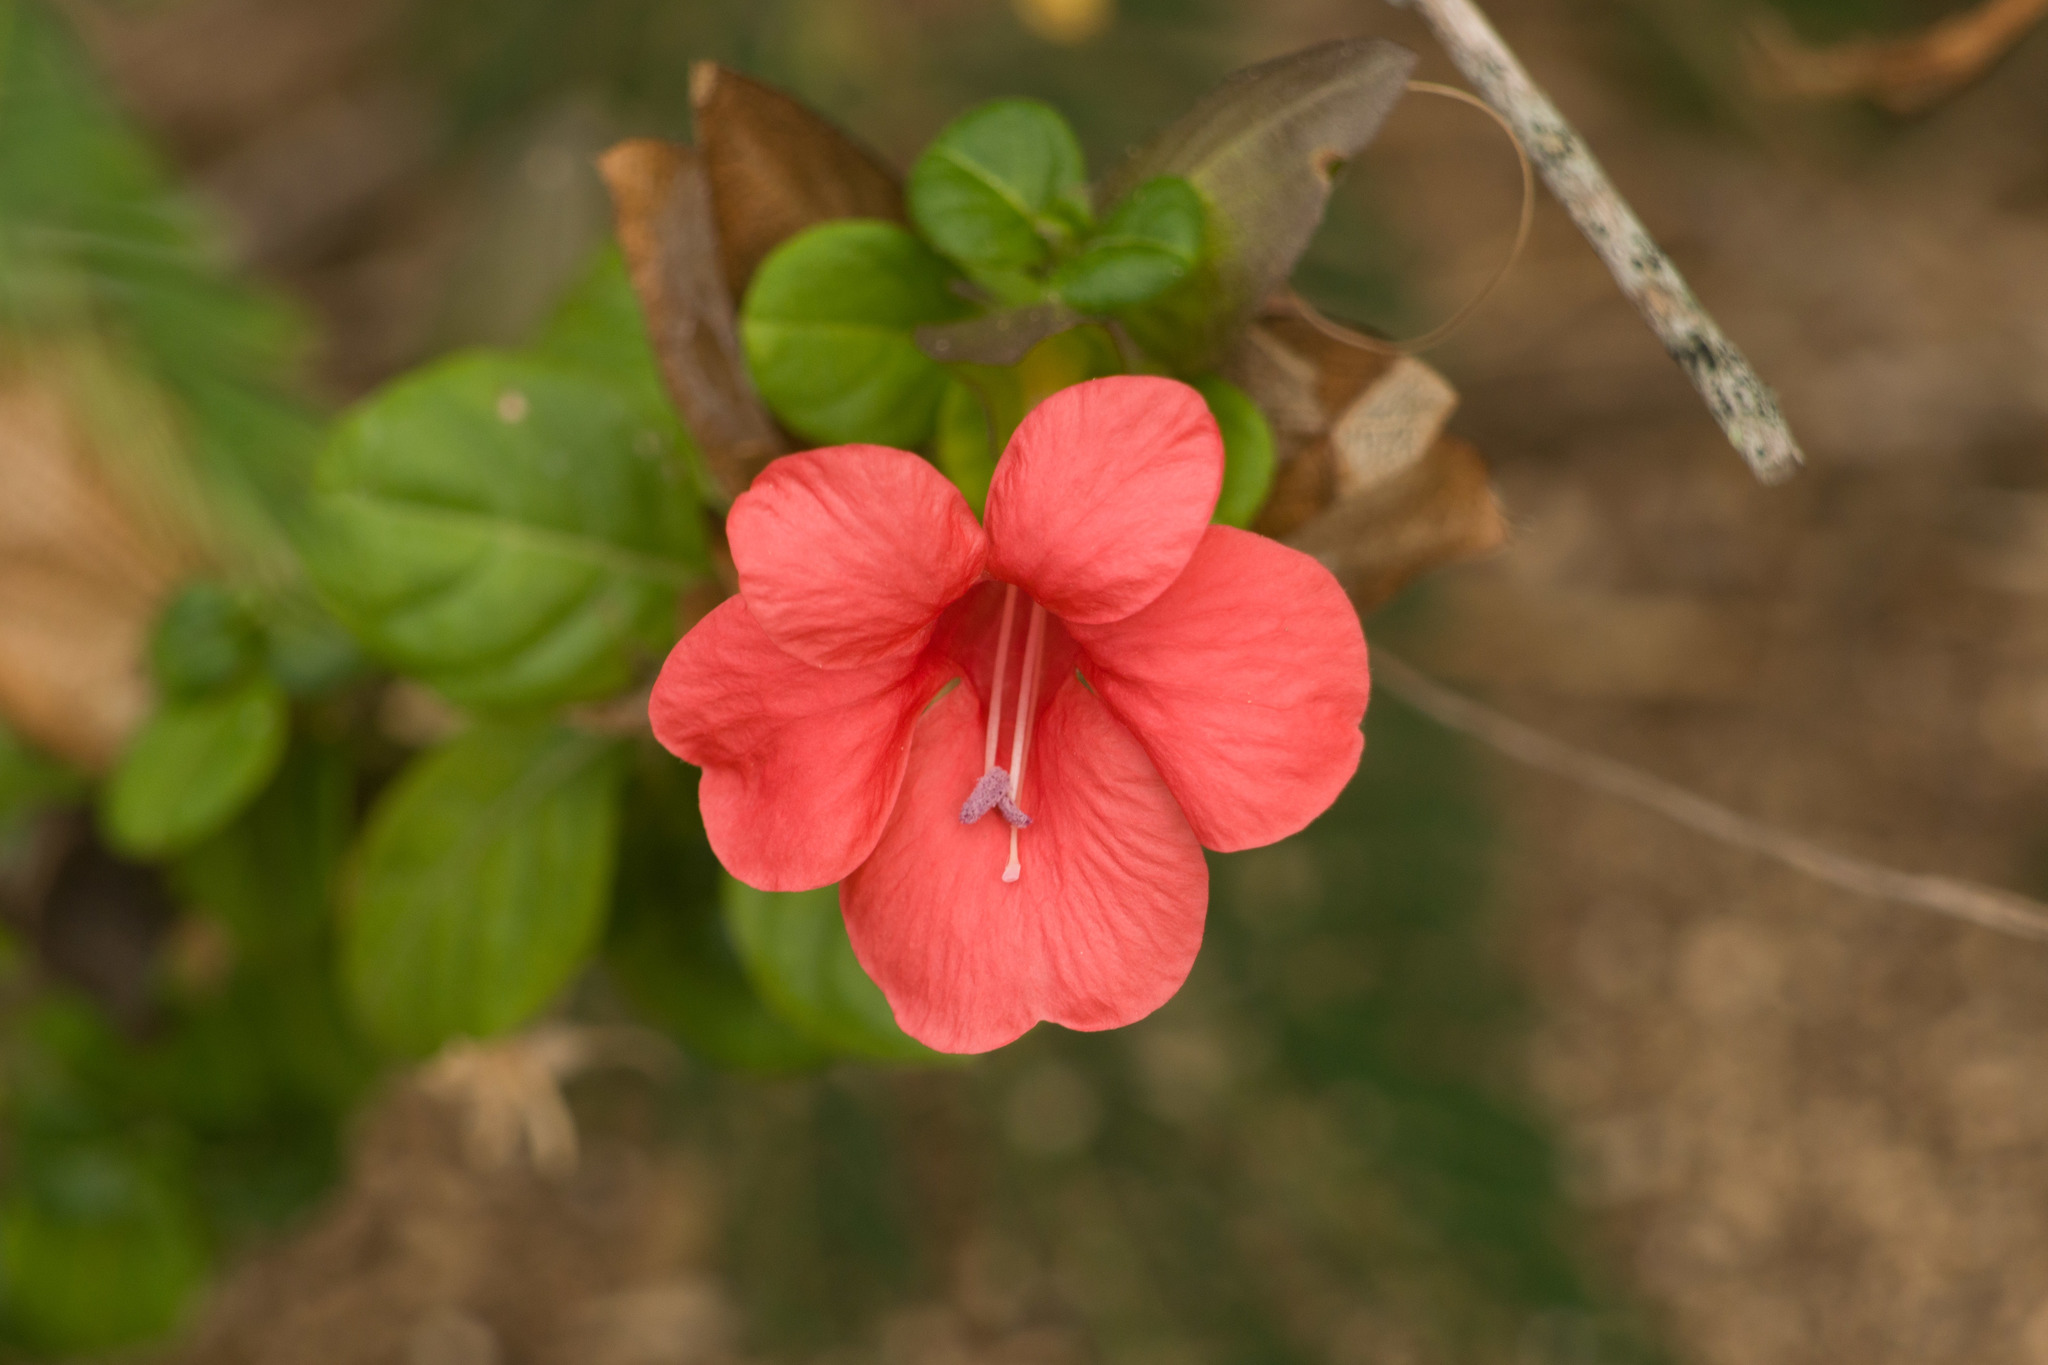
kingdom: Plantae
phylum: Tracheophyta
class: Magnoliopsida
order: Lamiales
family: Acanthaceae
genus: Barleria
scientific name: Barleria repens
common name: Pink-ruellia
